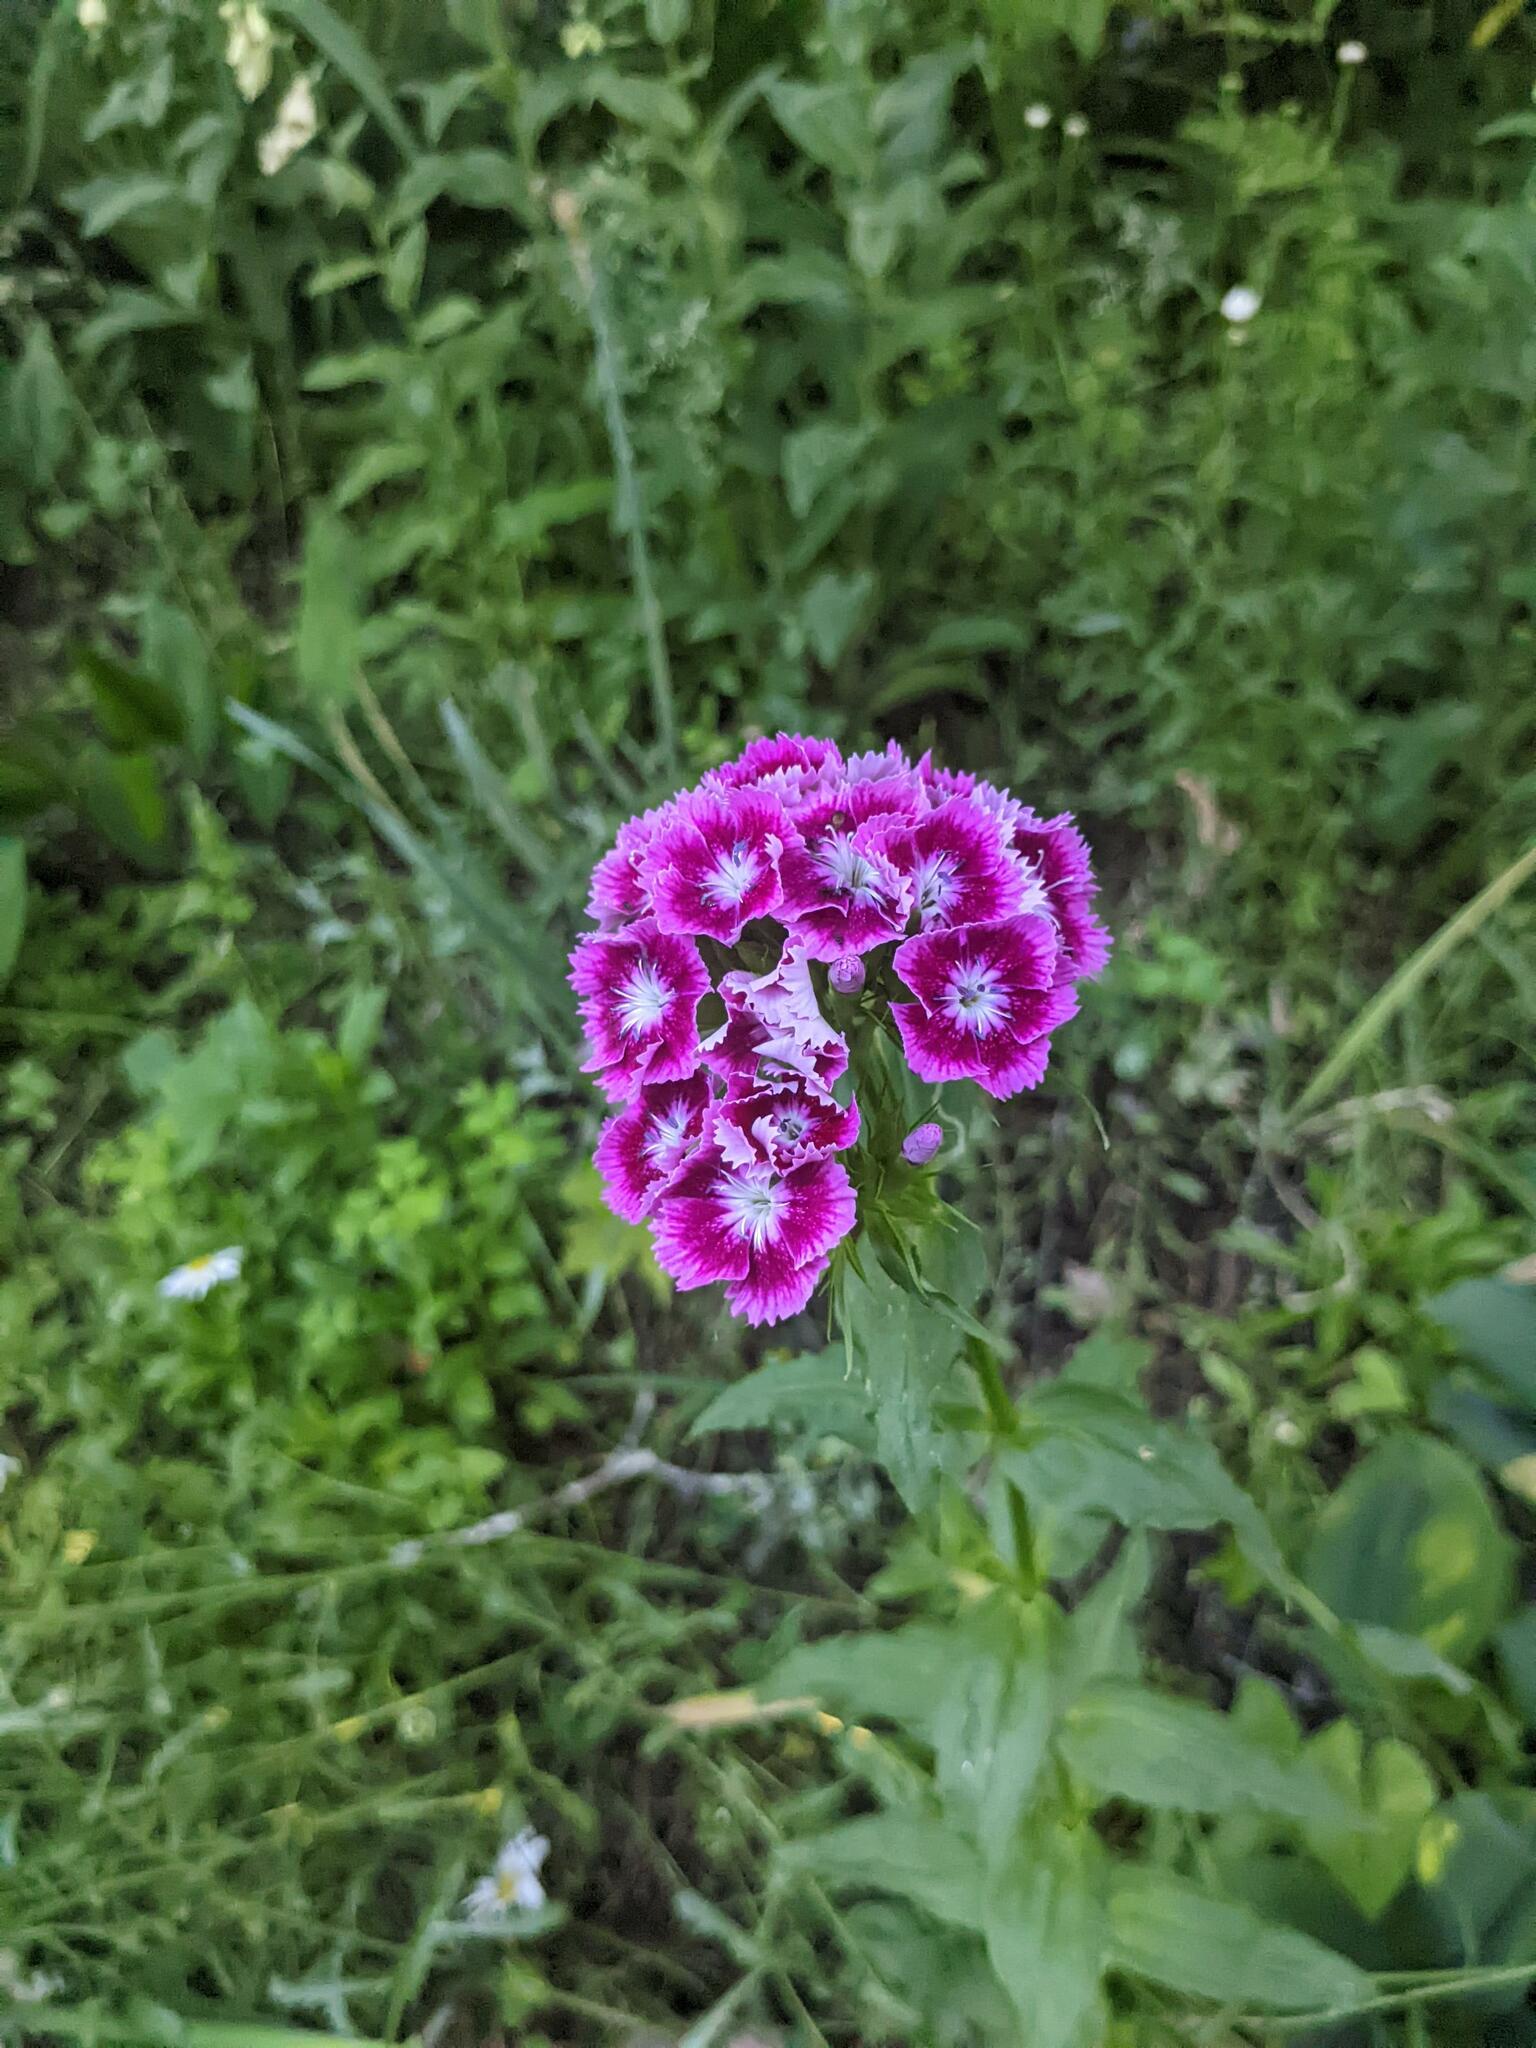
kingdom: Plantae
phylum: Tracheophyta
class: Magnoliopsida
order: Caryophyllales
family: Caryophyllaceae
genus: Dianthus
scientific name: Dianthus barbatus
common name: Sweet-william
